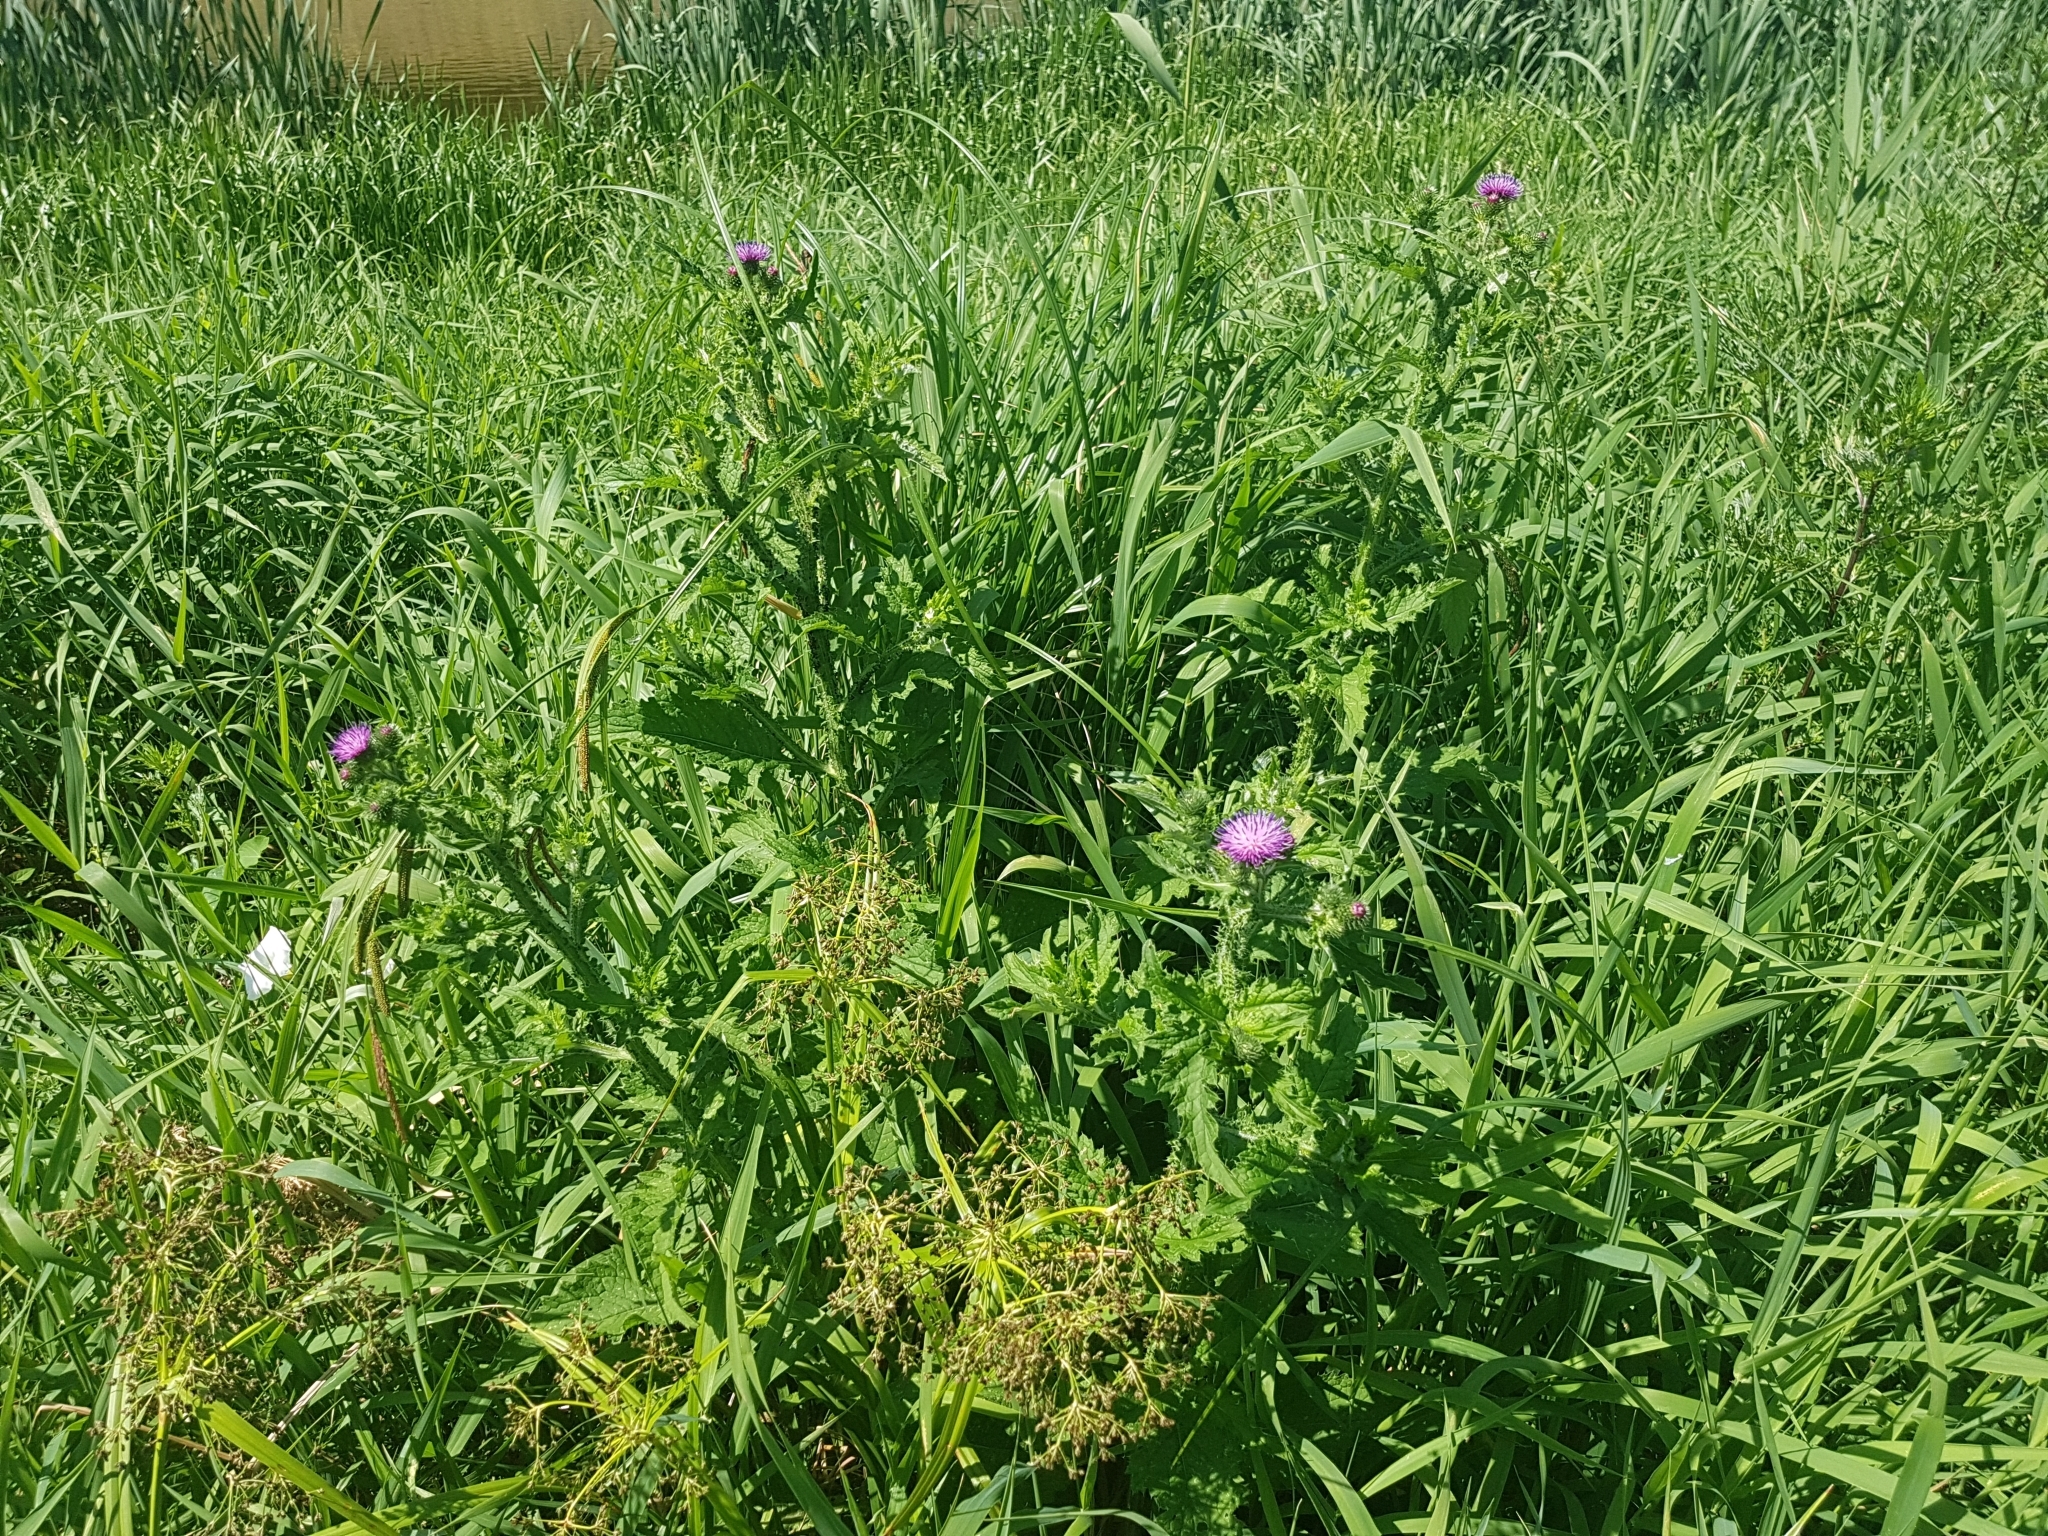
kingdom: Plantae
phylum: Tracheophyta
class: Magnoliopsida
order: Asterales
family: Asteraceae
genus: Carduus
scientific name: Carduus crispus
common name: Welted thistle
